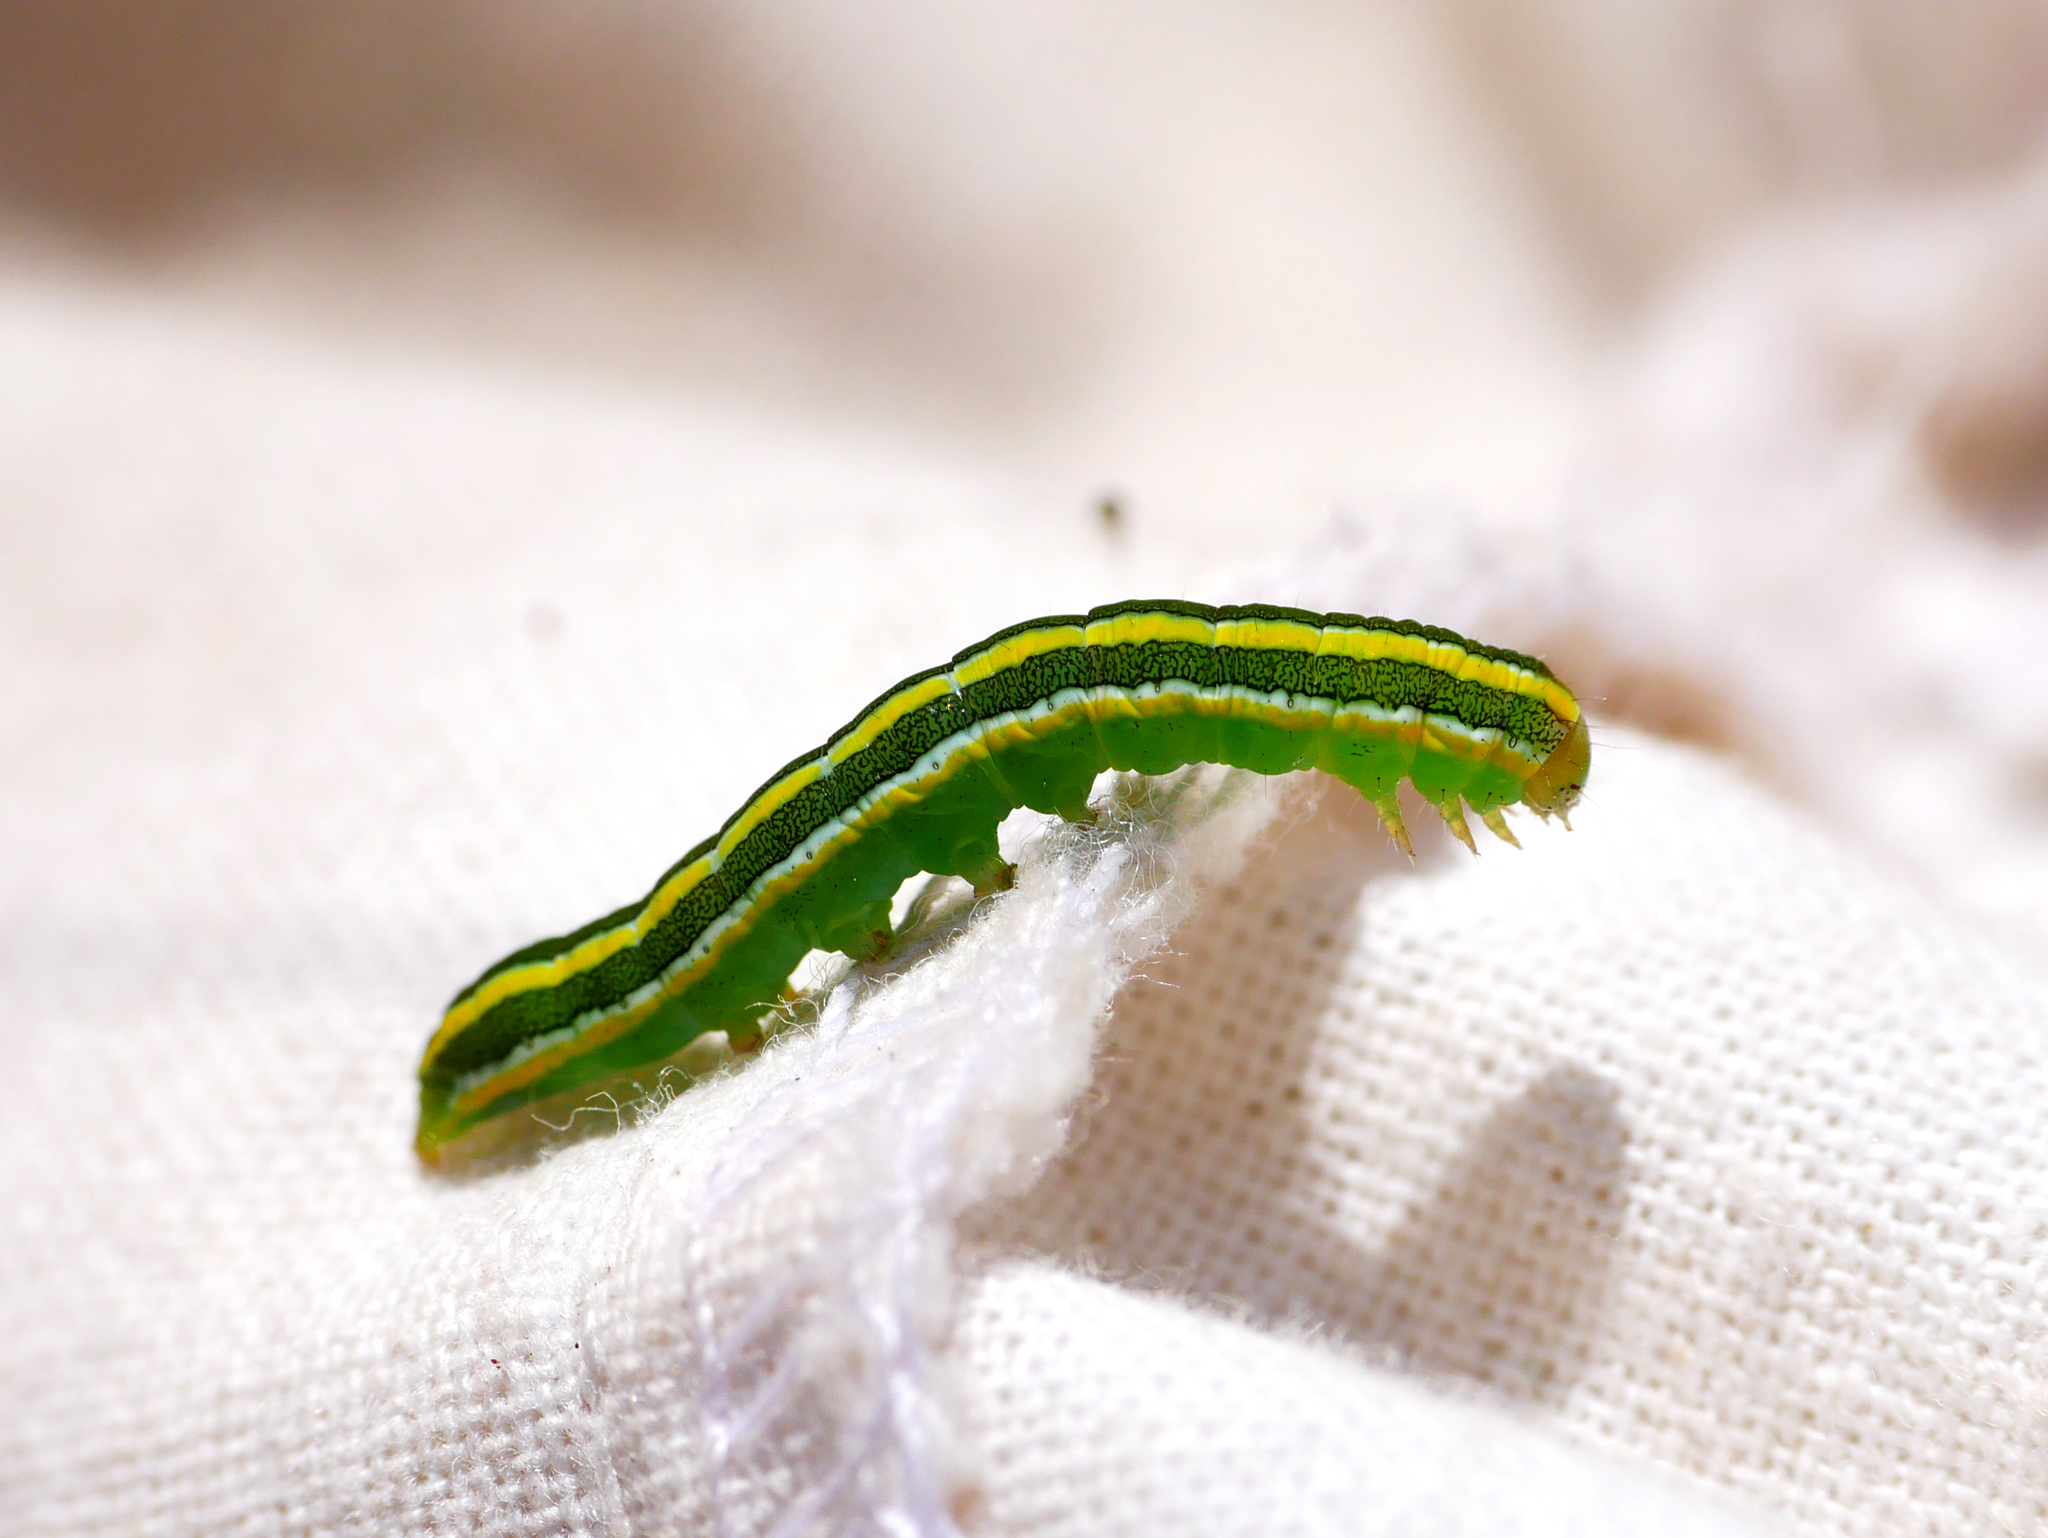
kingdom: Animalia
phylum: Arthropoda
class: Insecta
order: Lepidoptera
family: Noctuidae
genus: Ceramica
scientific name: Ceramica pisi
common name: Broom moth
